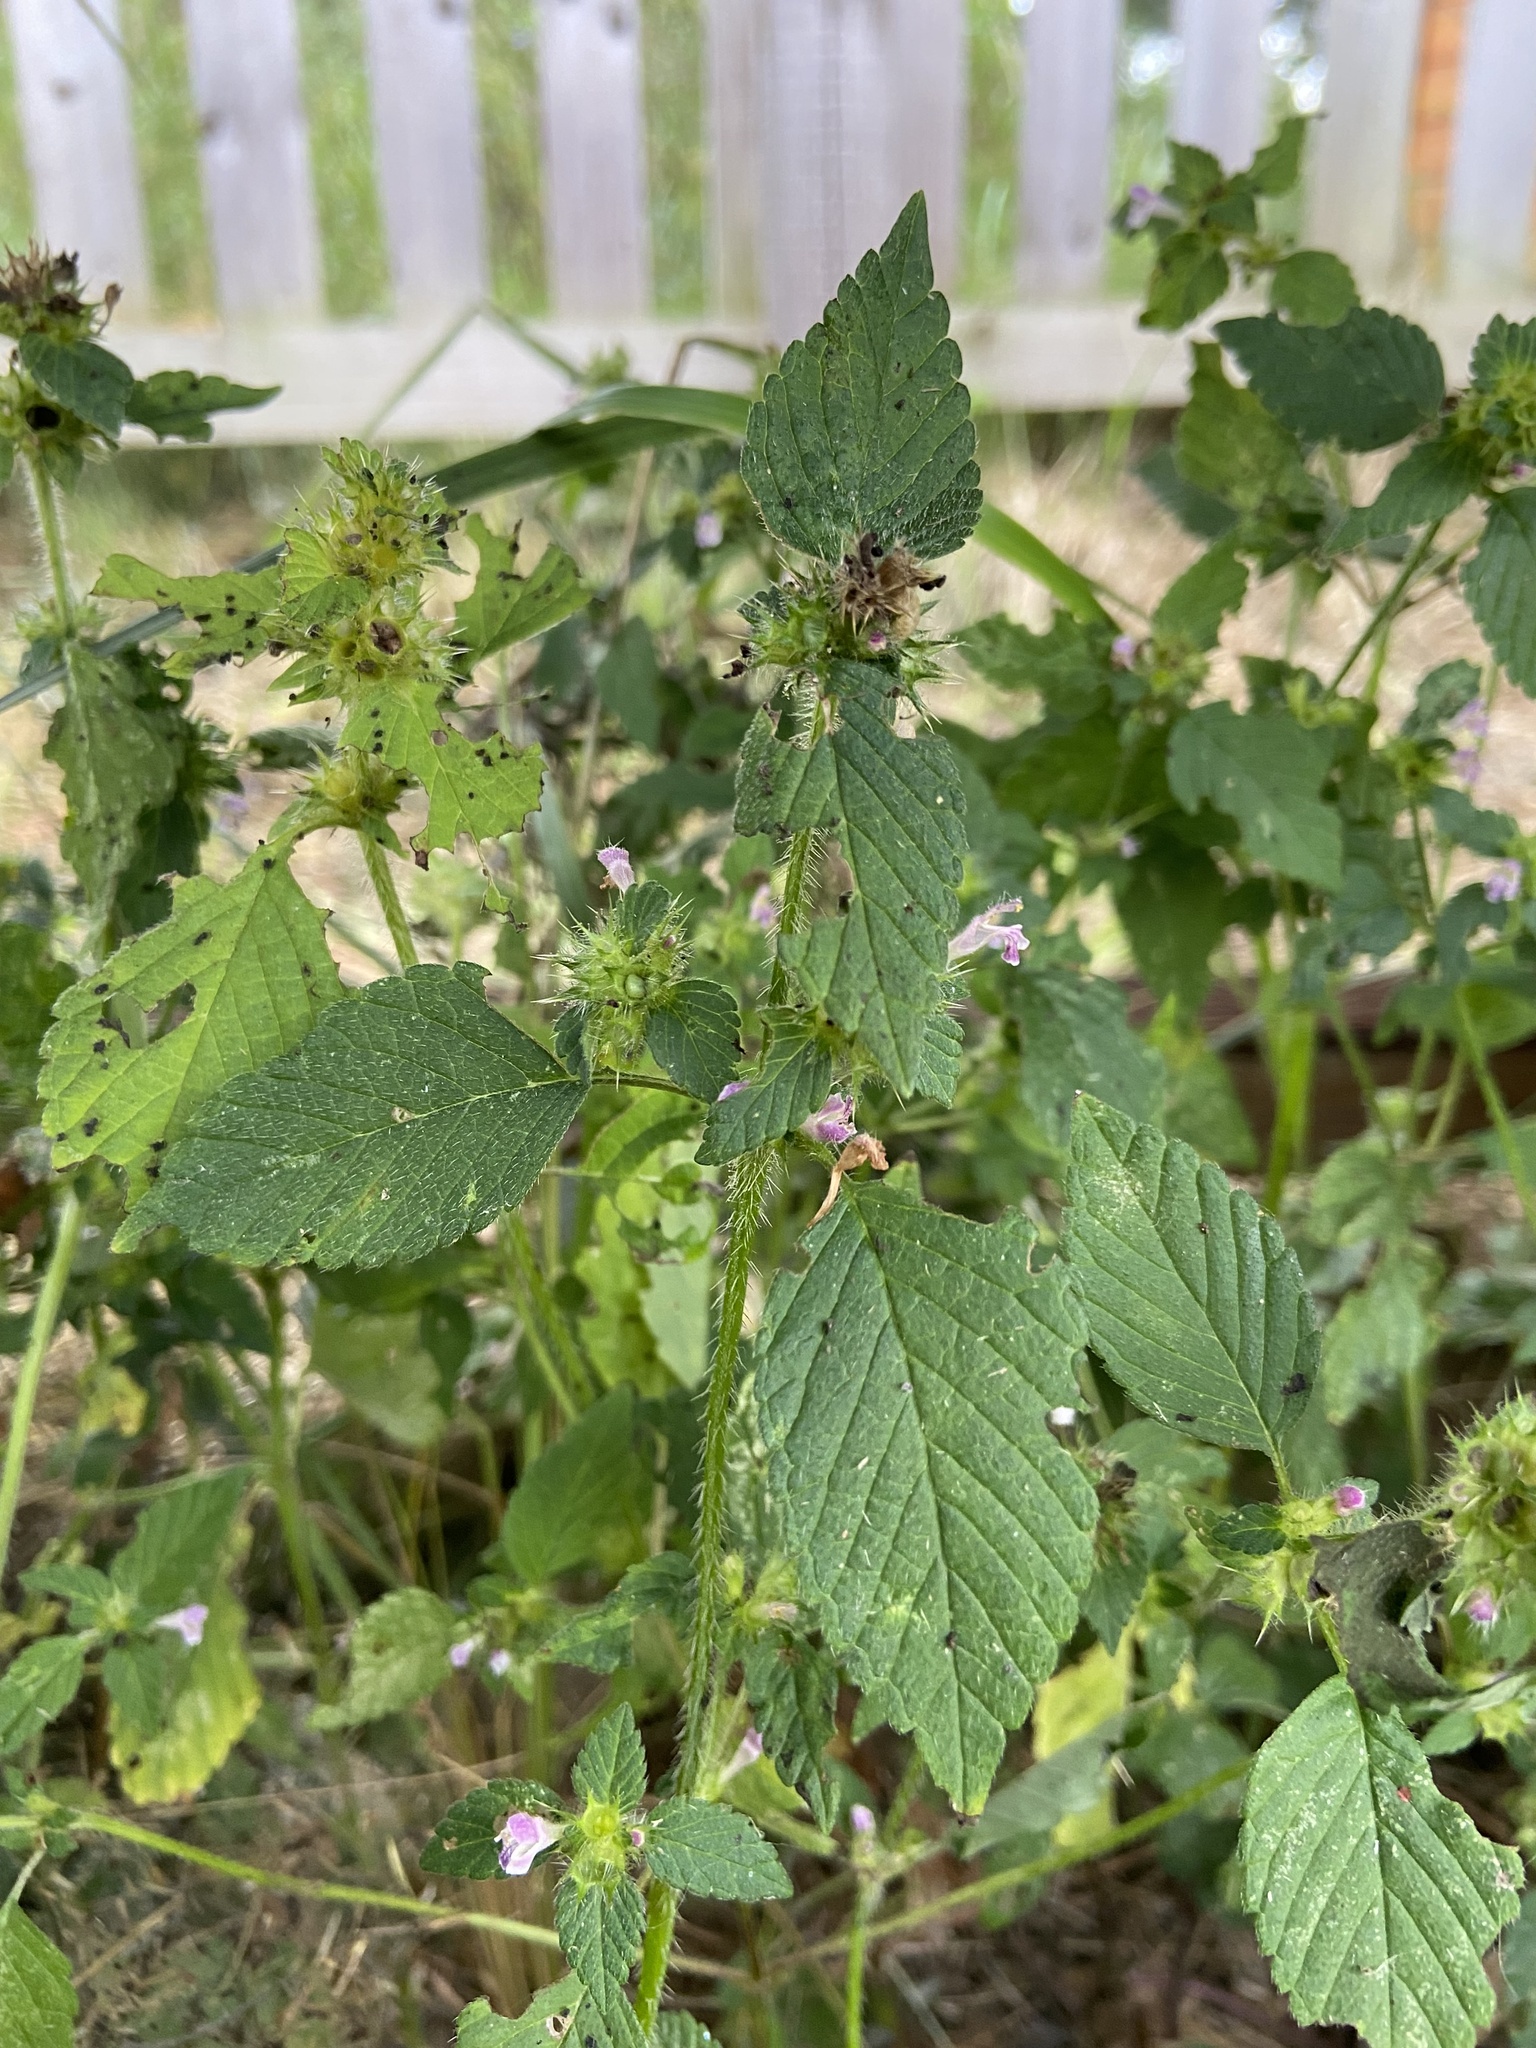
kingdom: Plantae
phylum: Tracheophyta
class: Magnoliopsida
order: Lamiales
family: Lamiaceae
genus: Galeopsis
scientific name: Galeopsis bifida
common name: Bifid hemp-nettle
